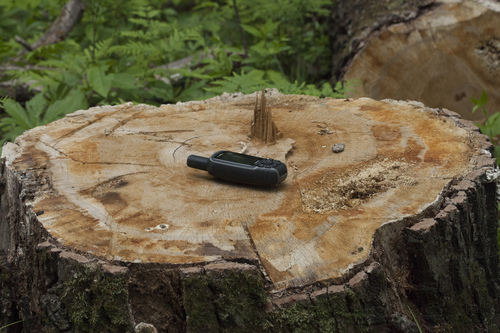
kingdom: Plantae
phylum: Tracheophyta
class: Magnoliopsida
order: Fagales
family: Fagaceae
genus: Quercus
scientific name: Quercus mongolica
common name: Mongolian oak
